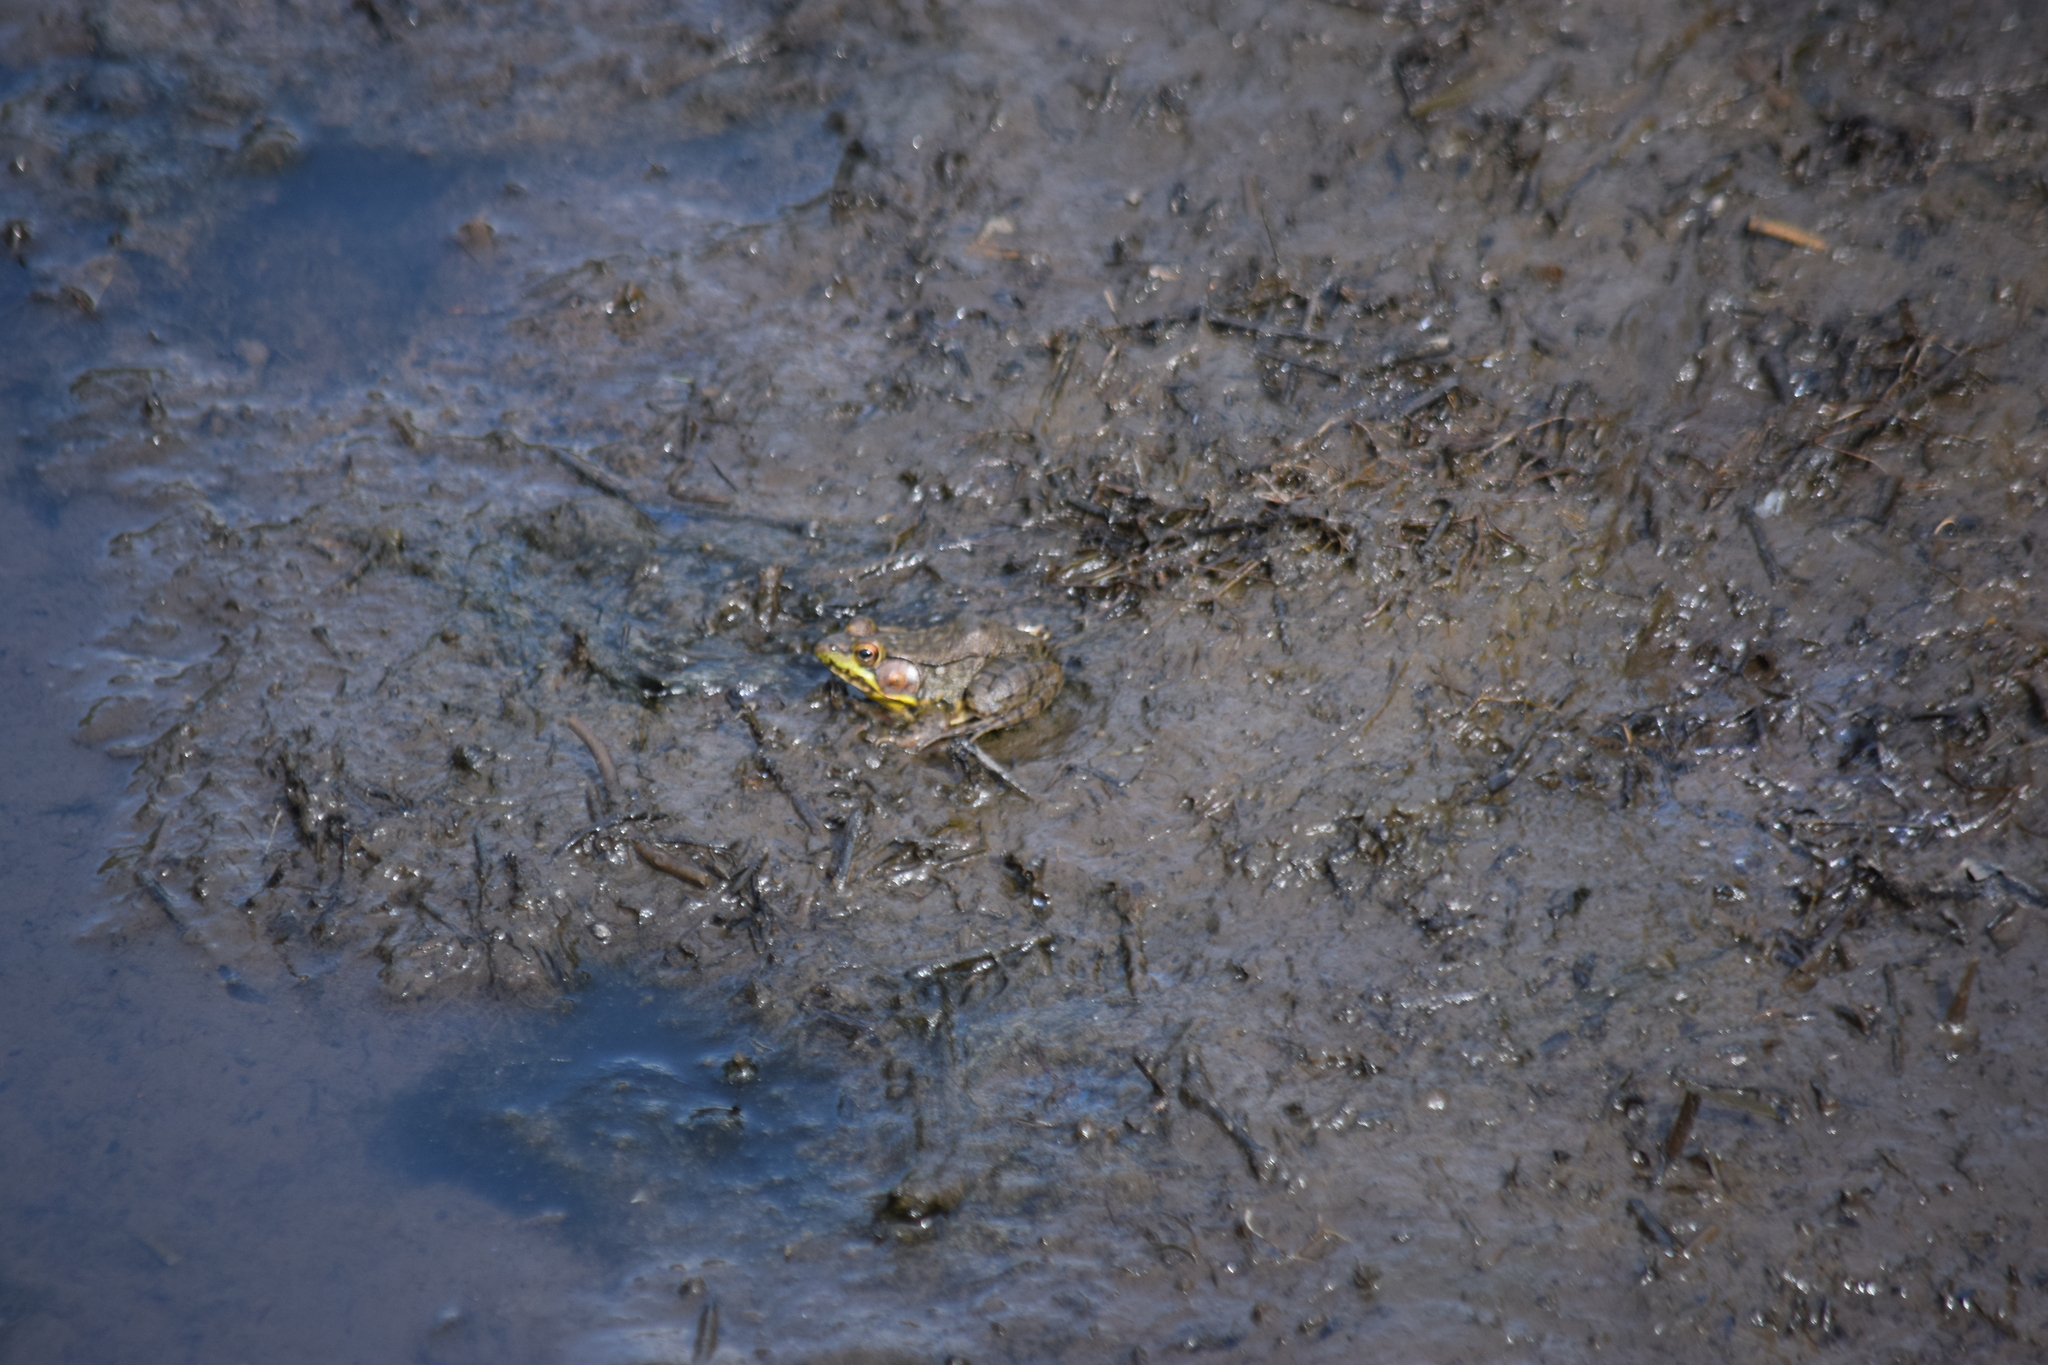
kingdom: Animalia
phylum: Chordata
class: Amphibia
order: Anura
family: Ranidae
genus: Lithobates
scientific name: Lithobates clamitans
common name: Green frog
